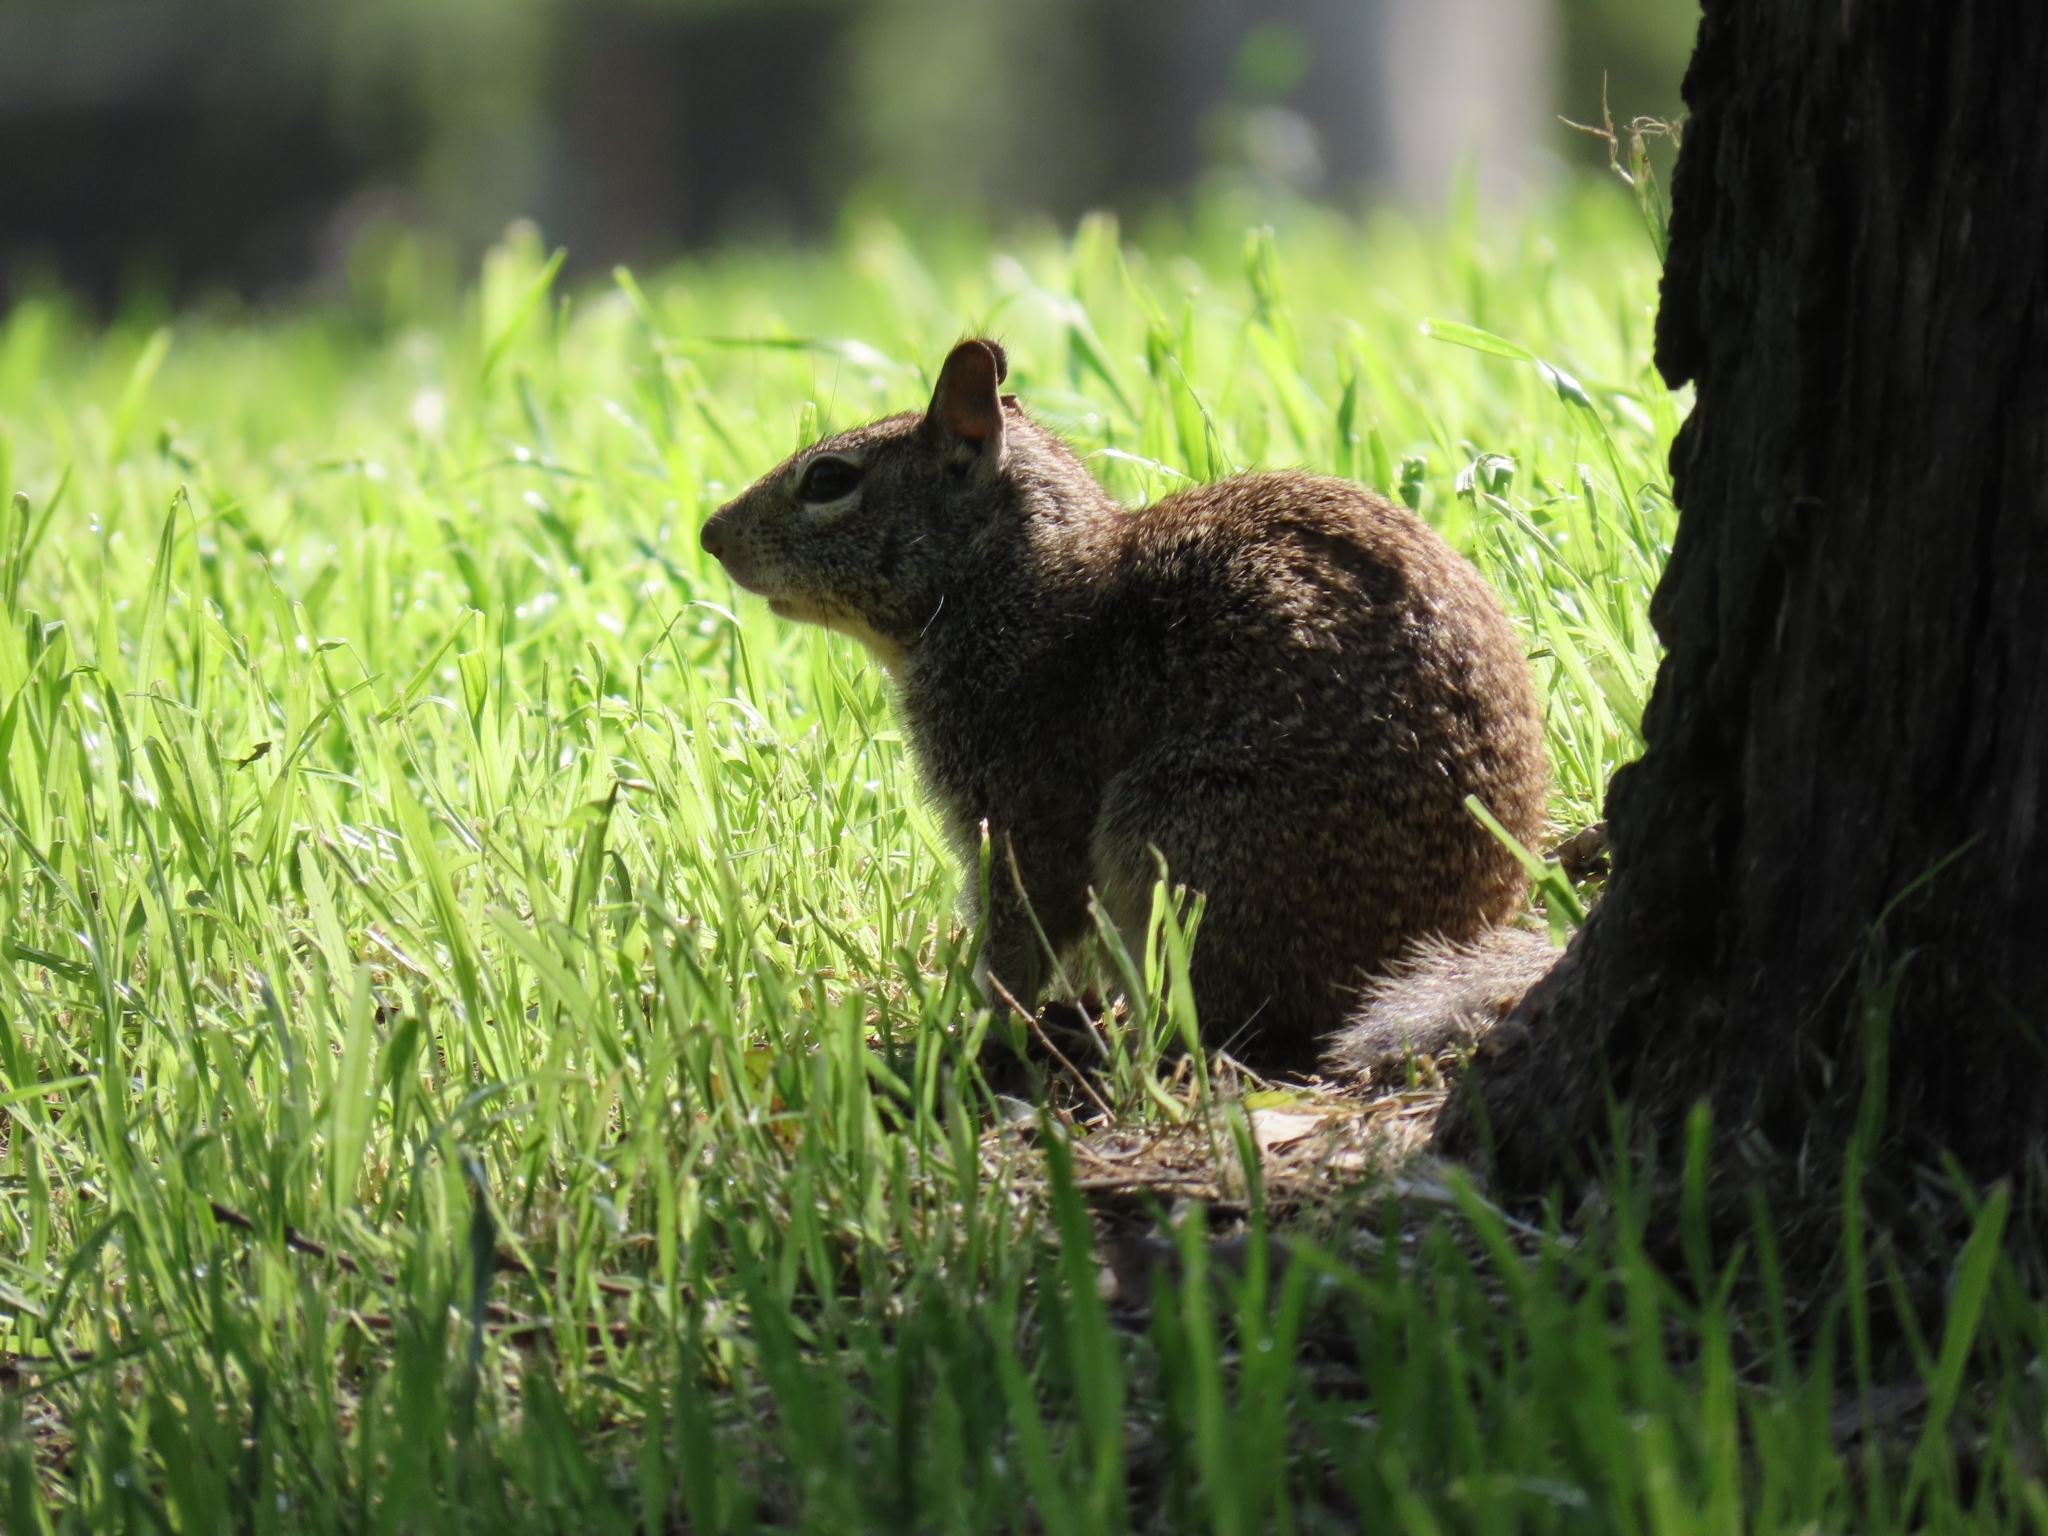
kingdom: Animalia
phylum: Chordata
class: Mammalia
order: Rodentia
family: Sciuridae
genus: Otospermophilus
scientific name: Otospermophilus beecheyi
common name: California ground squirrel
